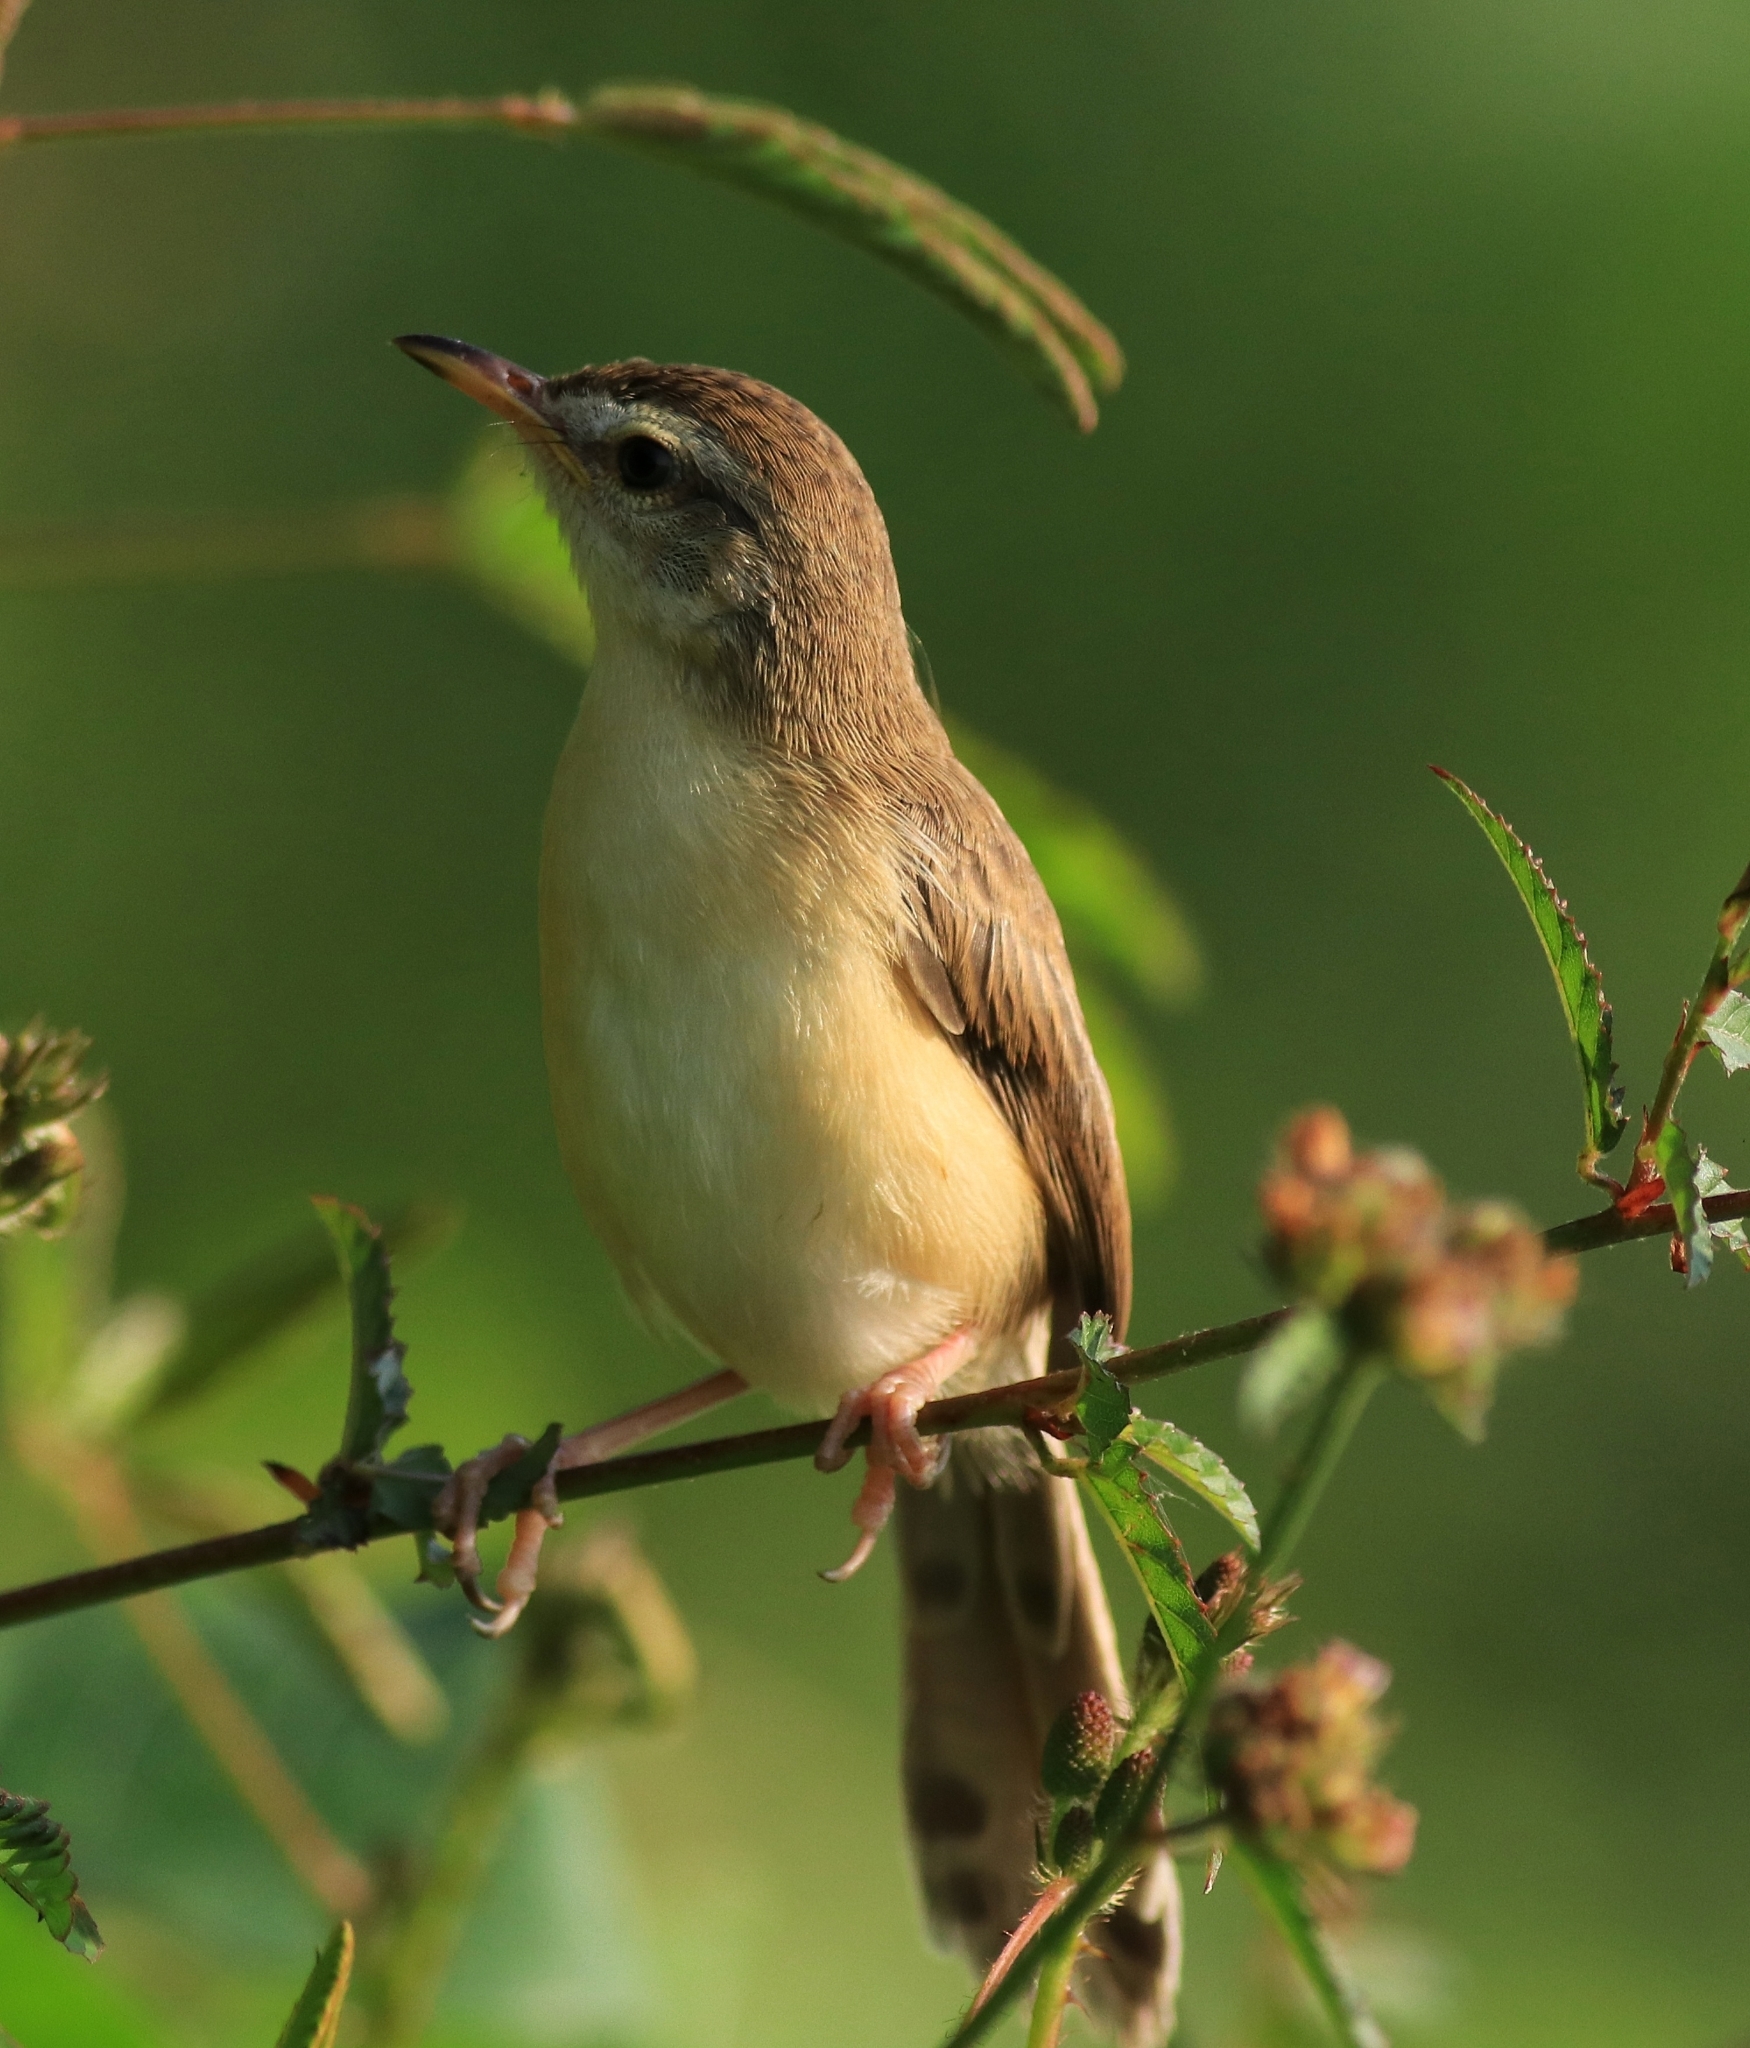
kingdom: Animalia
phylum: Chordata
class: Aves
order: Passeriformes
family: Cisticolidae
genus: Prinia
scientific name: Prinia inornata
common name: Plain prinia
